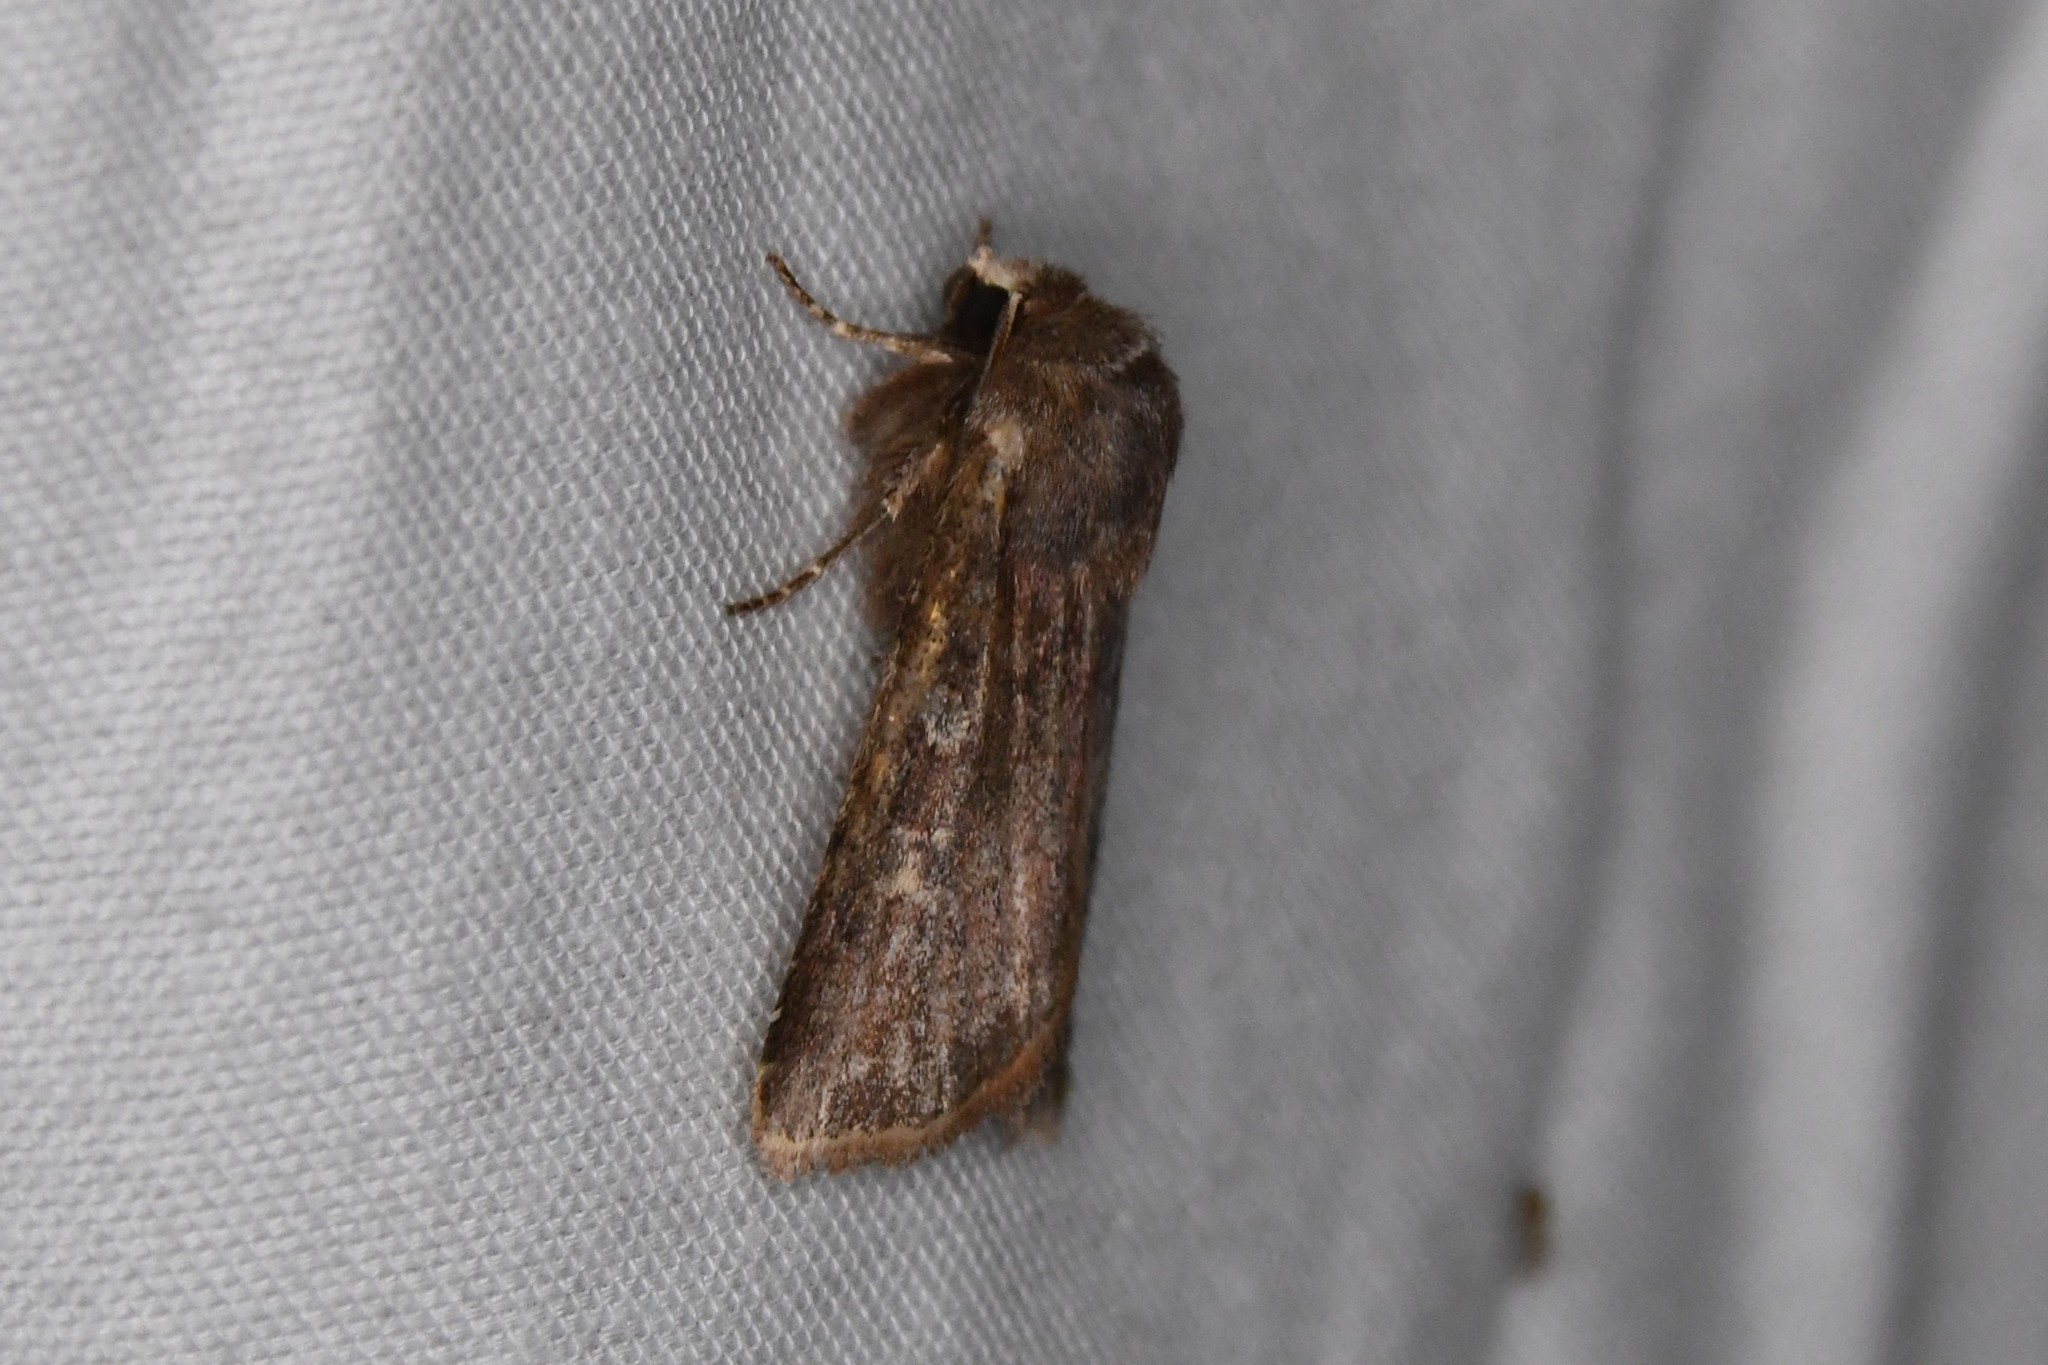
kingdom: Animalia
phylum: Arthropoda
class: Insecta
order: Lepidoptera
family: Noctuidae
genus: Cerastis
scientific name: Cerastis tenebrifera
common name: Reddish speckled dart
